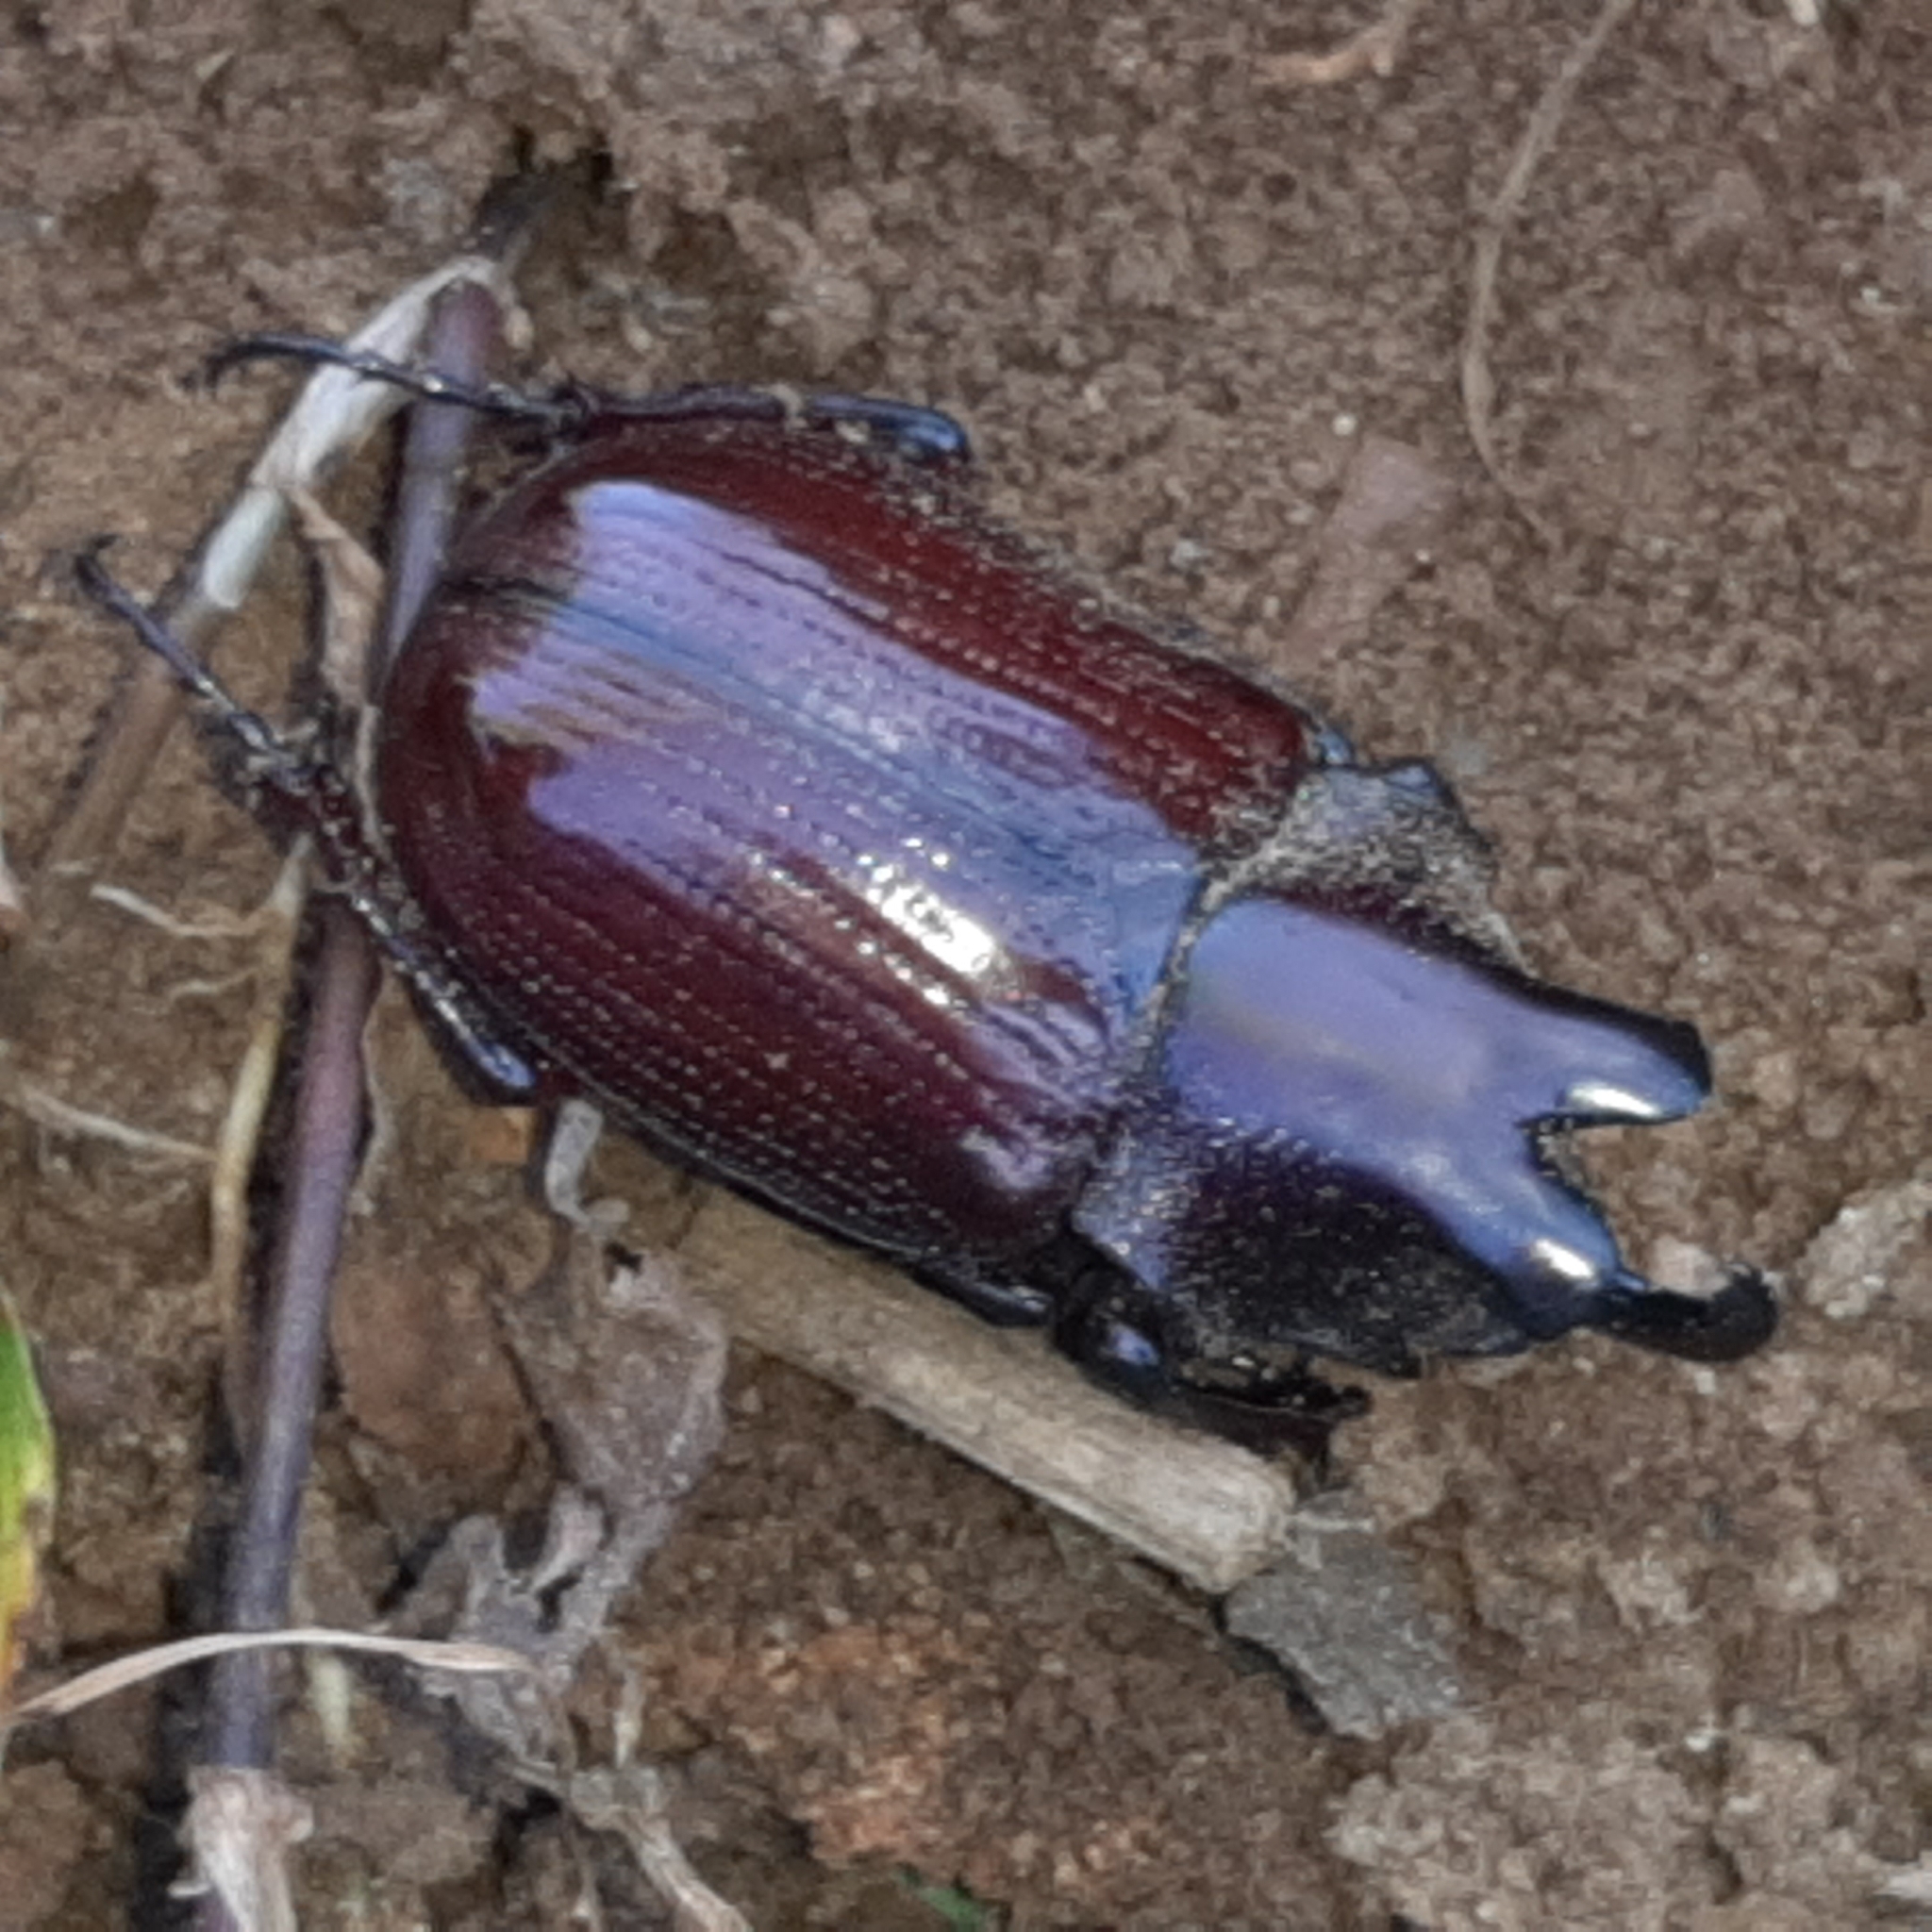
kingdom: Animalia
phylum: Arthropoda
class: Insecta
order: Coleoptera
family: Scarabaeidae
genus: Coelosis
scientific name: Coelosis biloba
